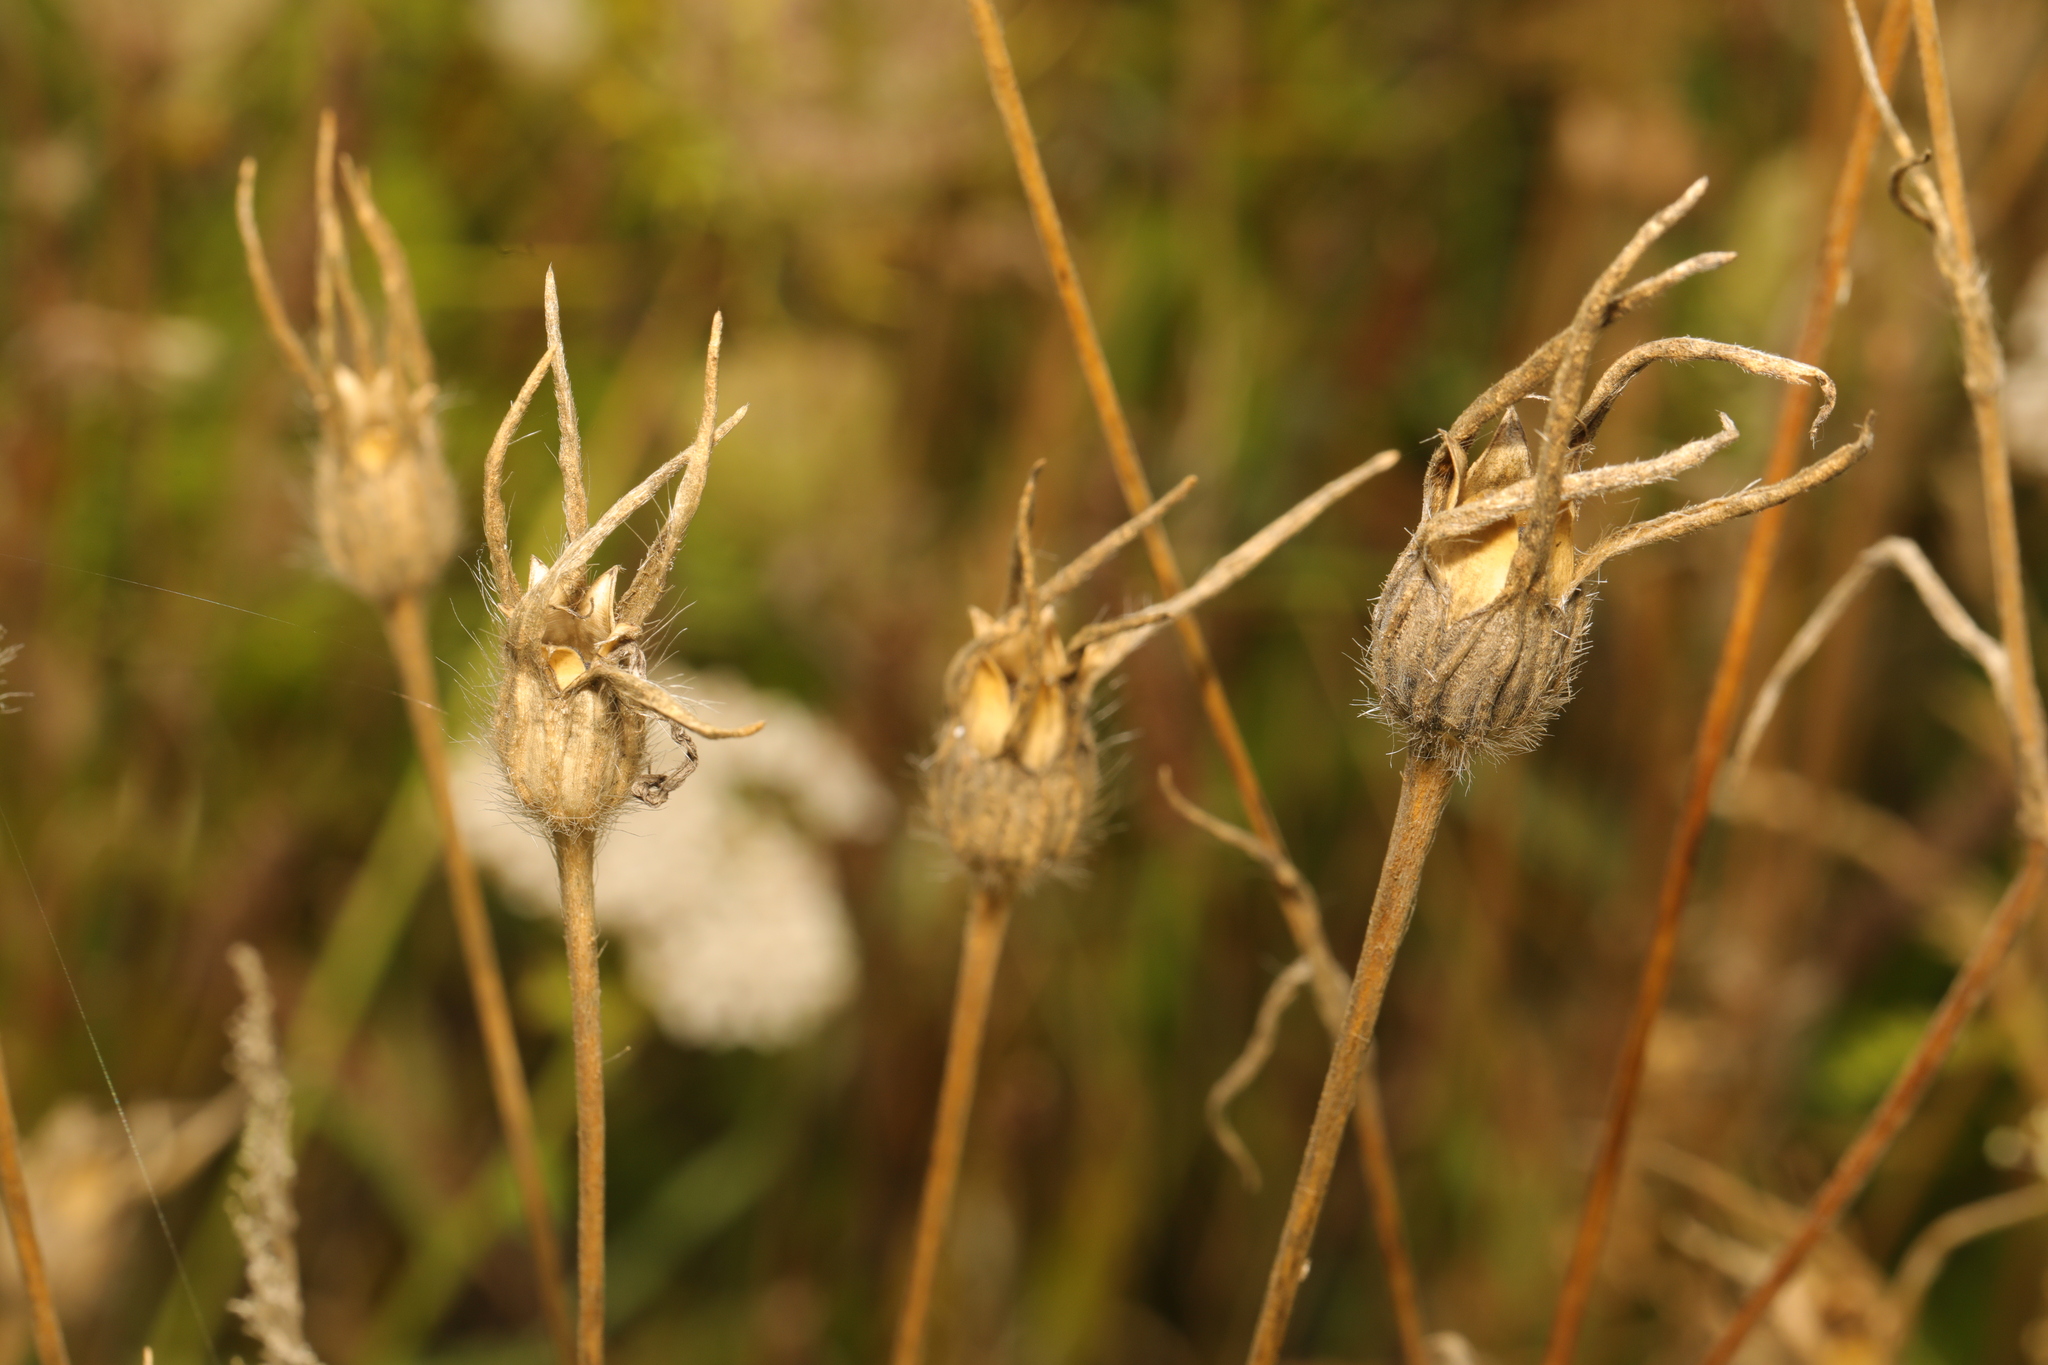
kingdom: Plantae
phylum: Tracheophyta
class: Magnoliopsida
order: Caryophyllales
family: Caryophyllaceae
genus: Agrostemma
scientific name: Agrostemma githago
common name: Common corncockle
